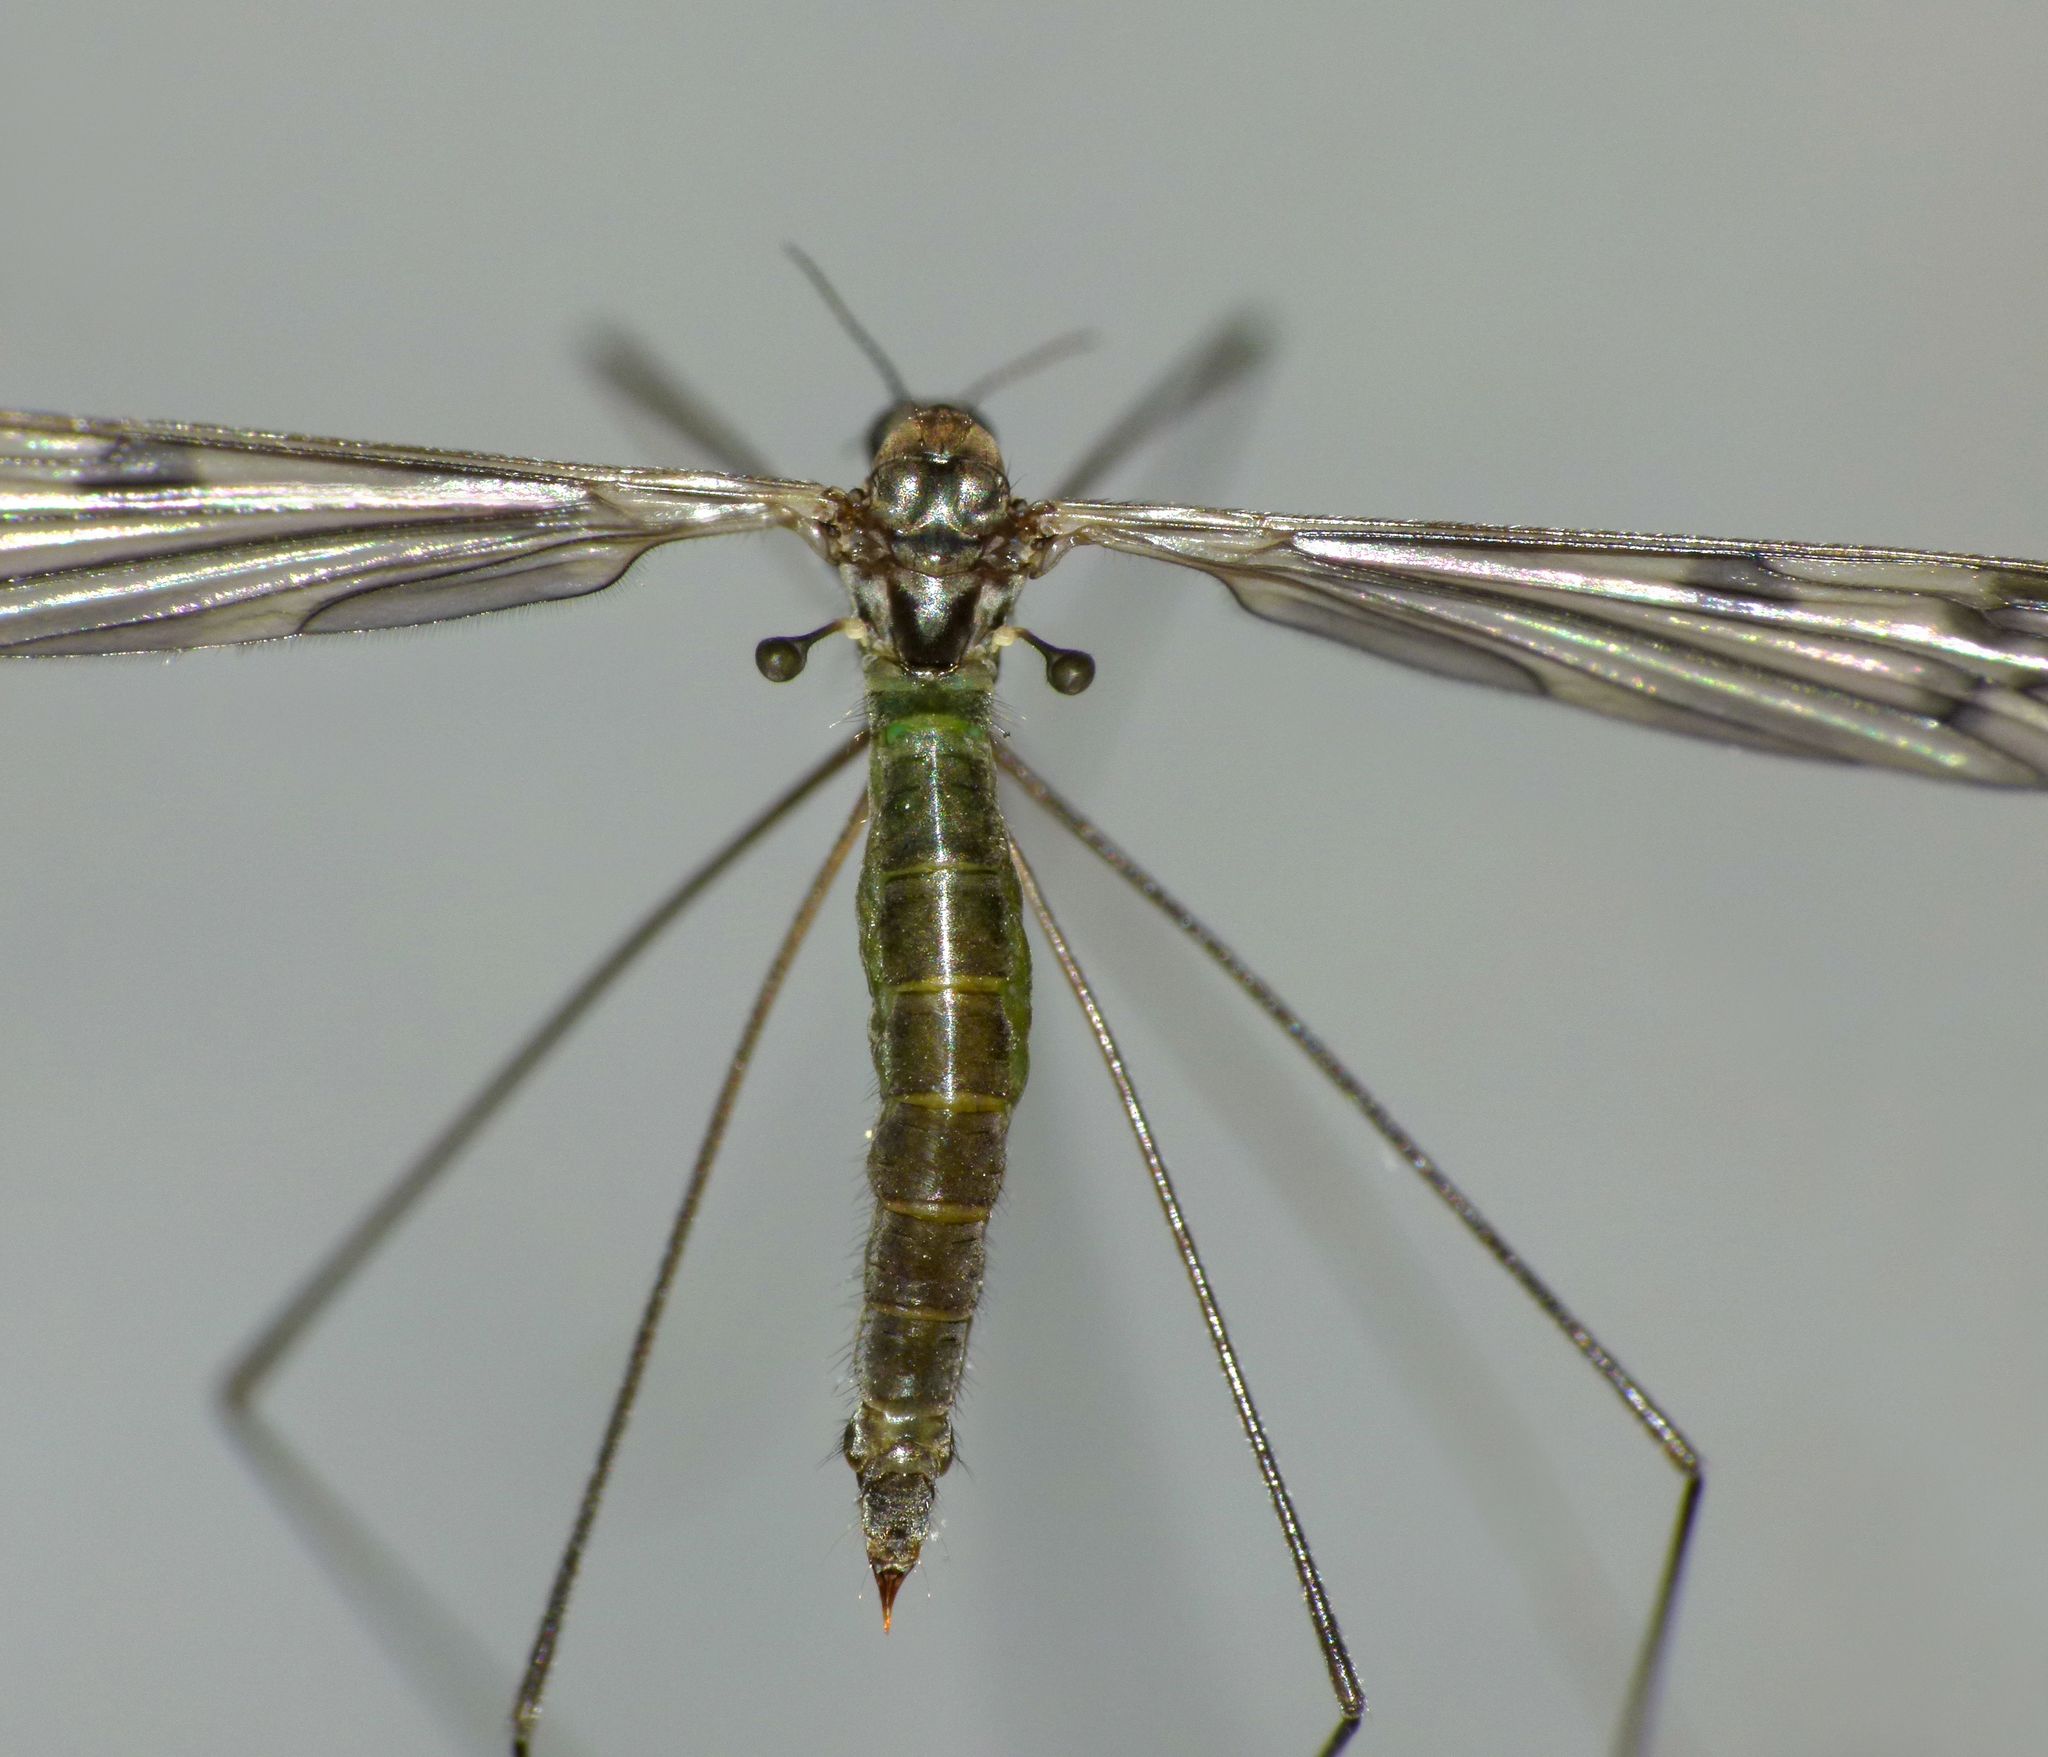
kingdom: Animalia
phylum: Arthropoda
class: Insecta
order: Diptera
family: Limoniidae
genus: Libnotes
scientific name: Libnotes falcata
